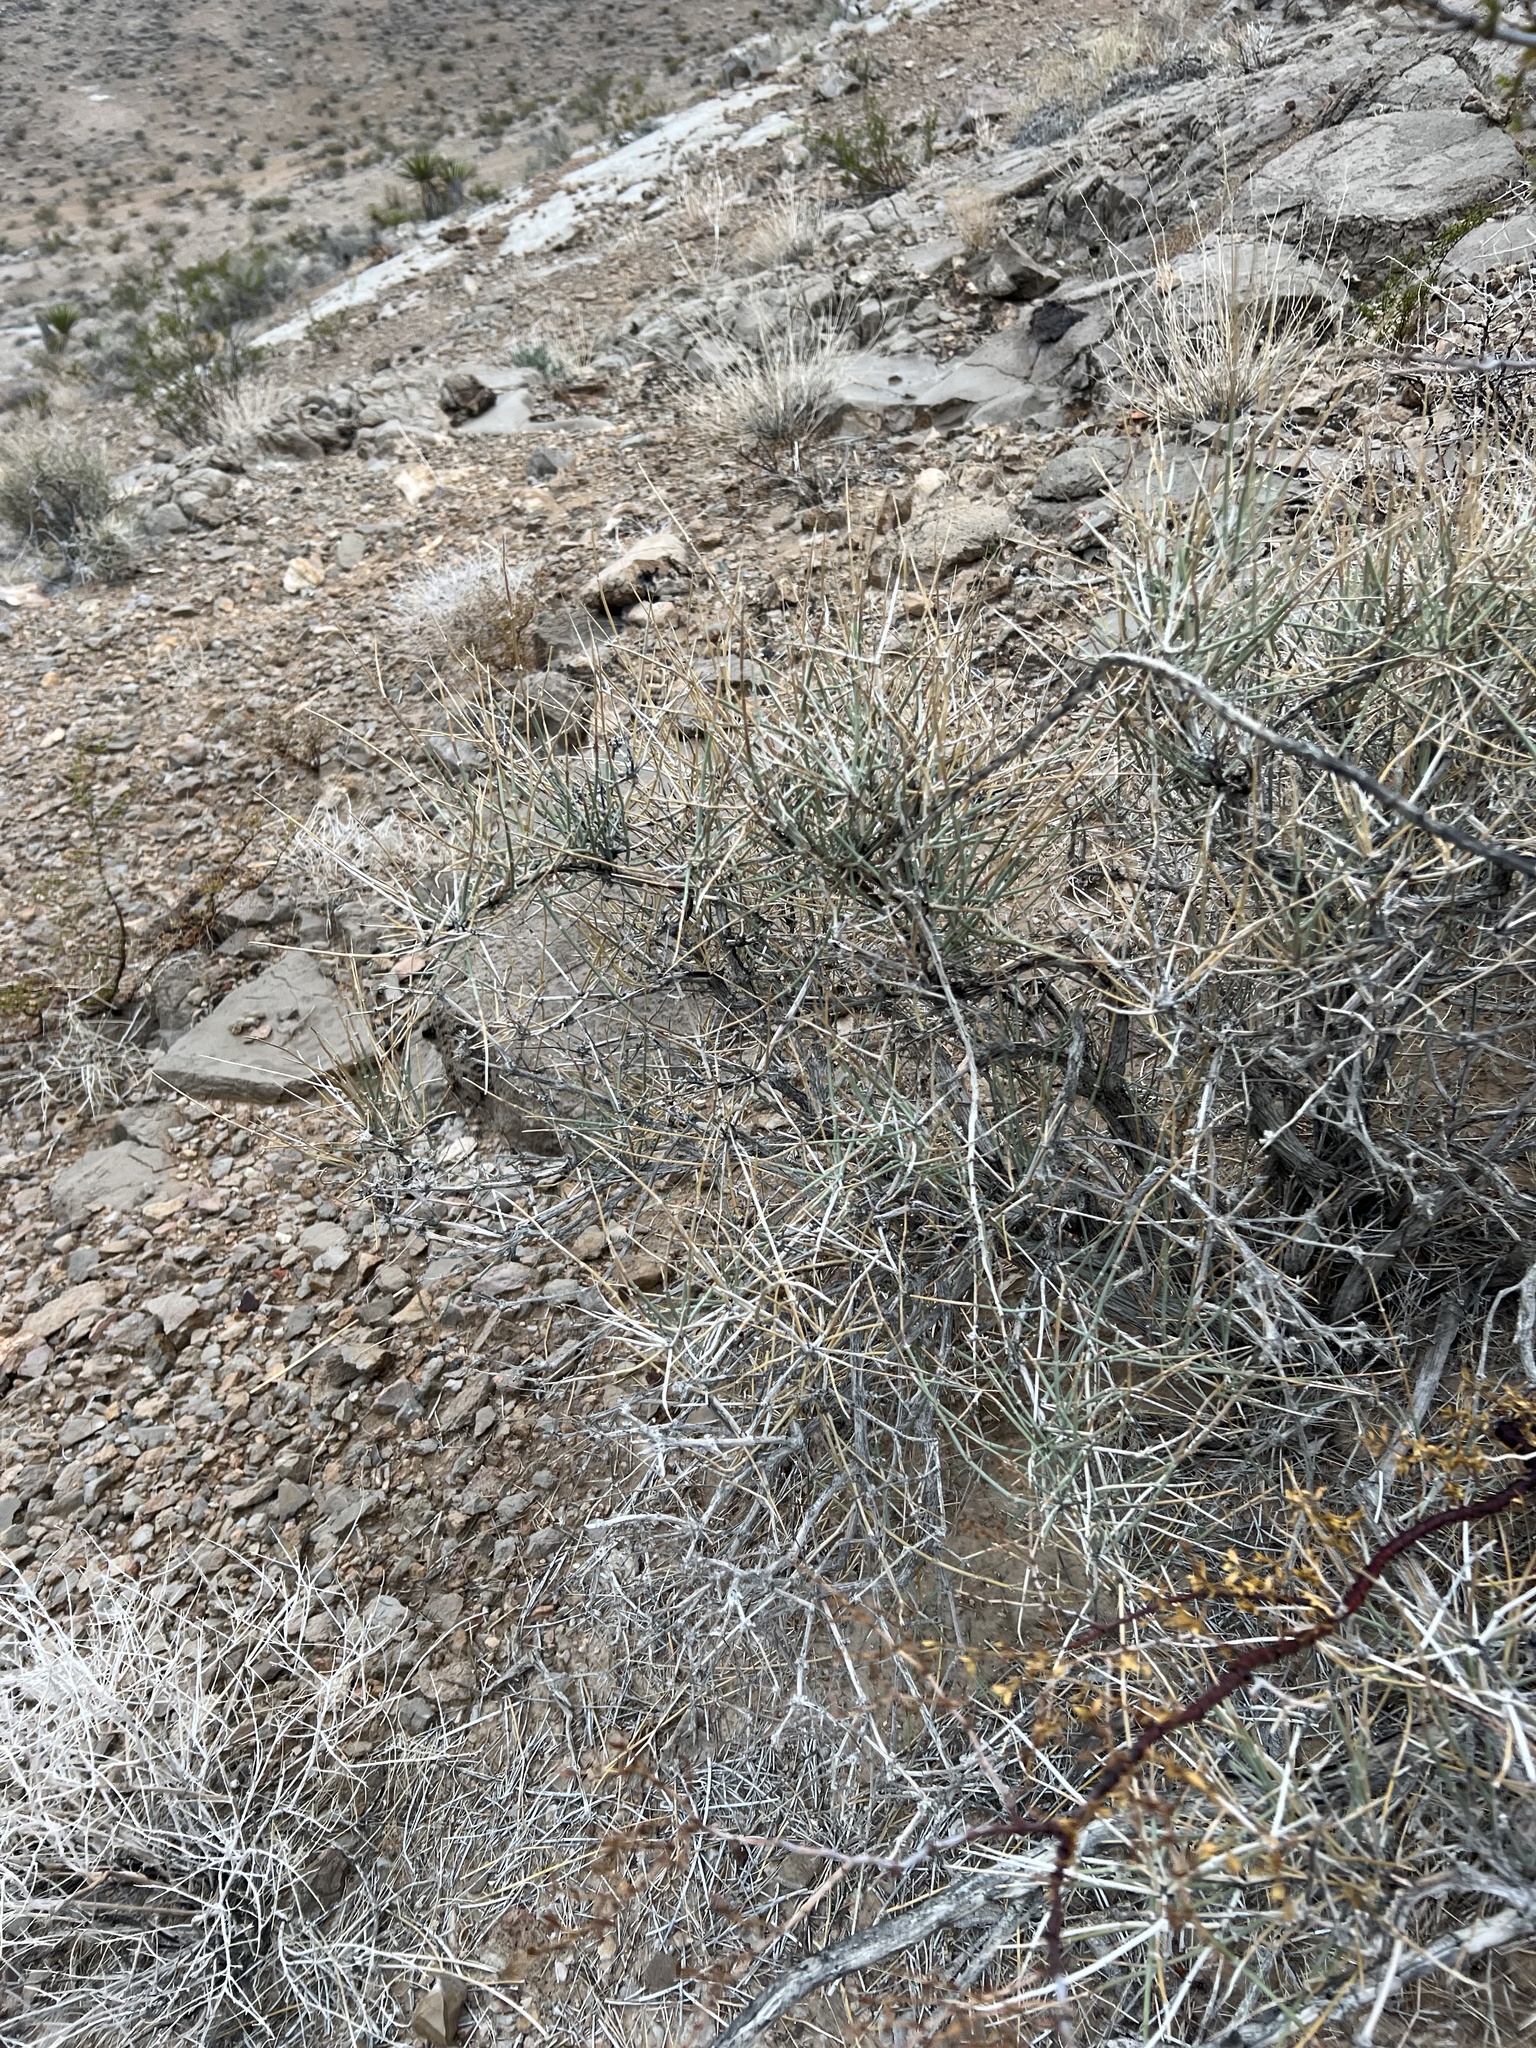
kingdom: Plantae
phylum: Tracheophyta
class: Gnetopsida
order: Ephedrales
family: Ephedraceae
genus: Ephedra
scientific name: Ephedra nevadensis
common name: Gray ephedra
